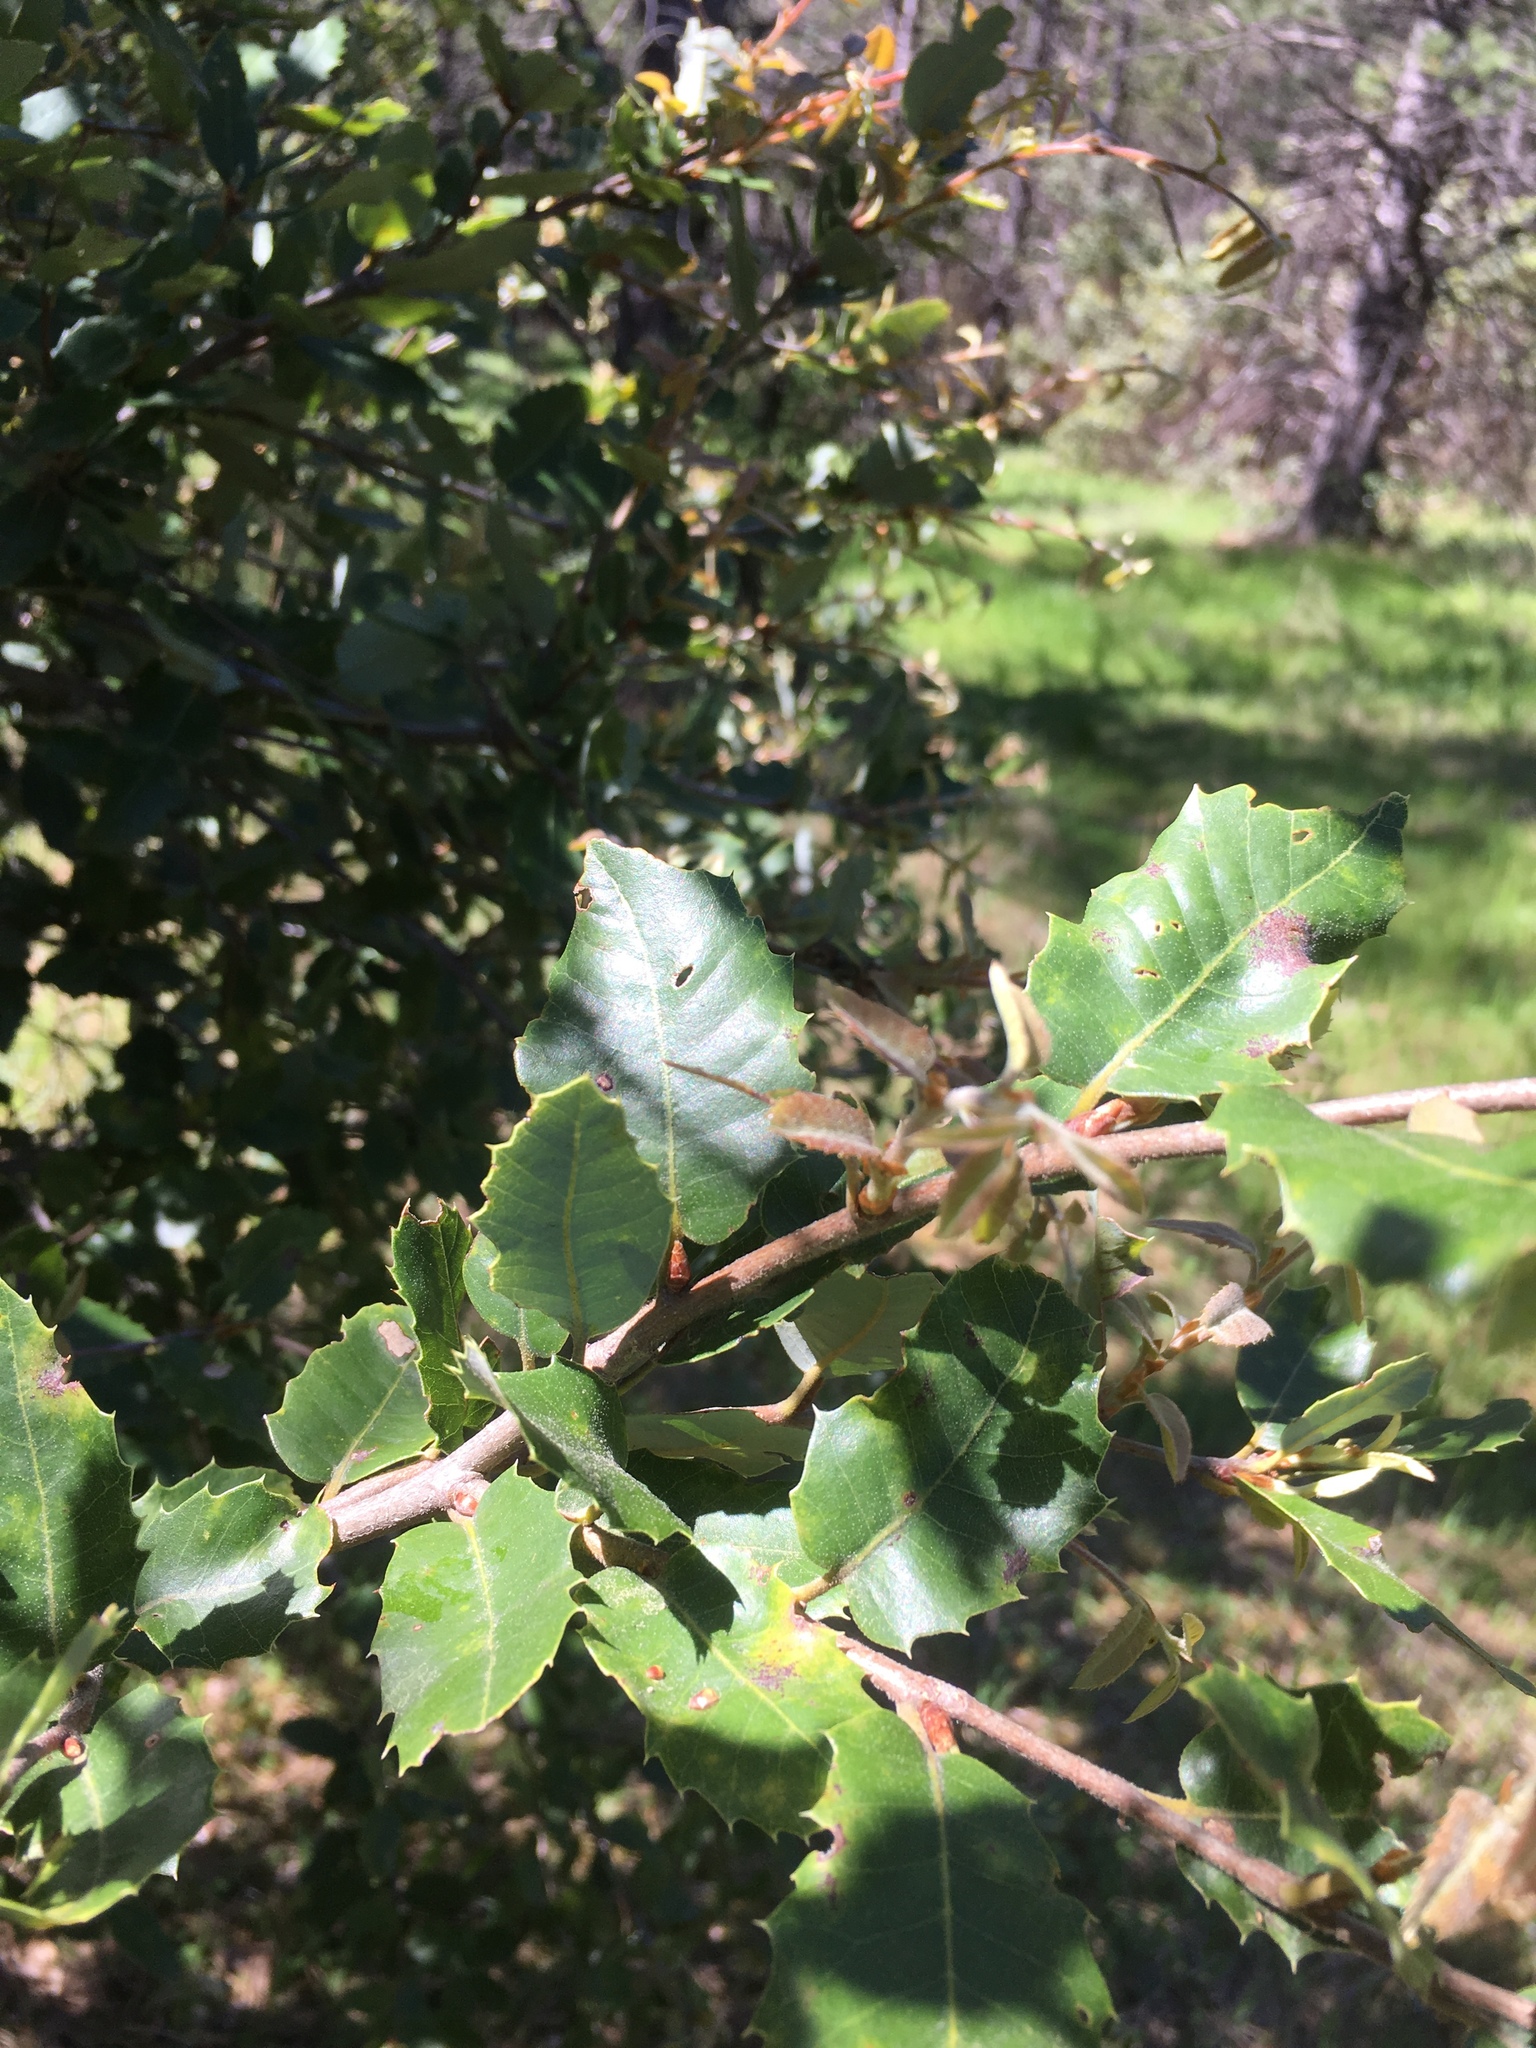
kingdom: Plantae
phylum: Tracheophyta
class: Magnoliopsida
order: Fagales
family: Fagaceae
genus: Quercus
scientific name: Quercus chrysolepis
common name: Canyon live oak
